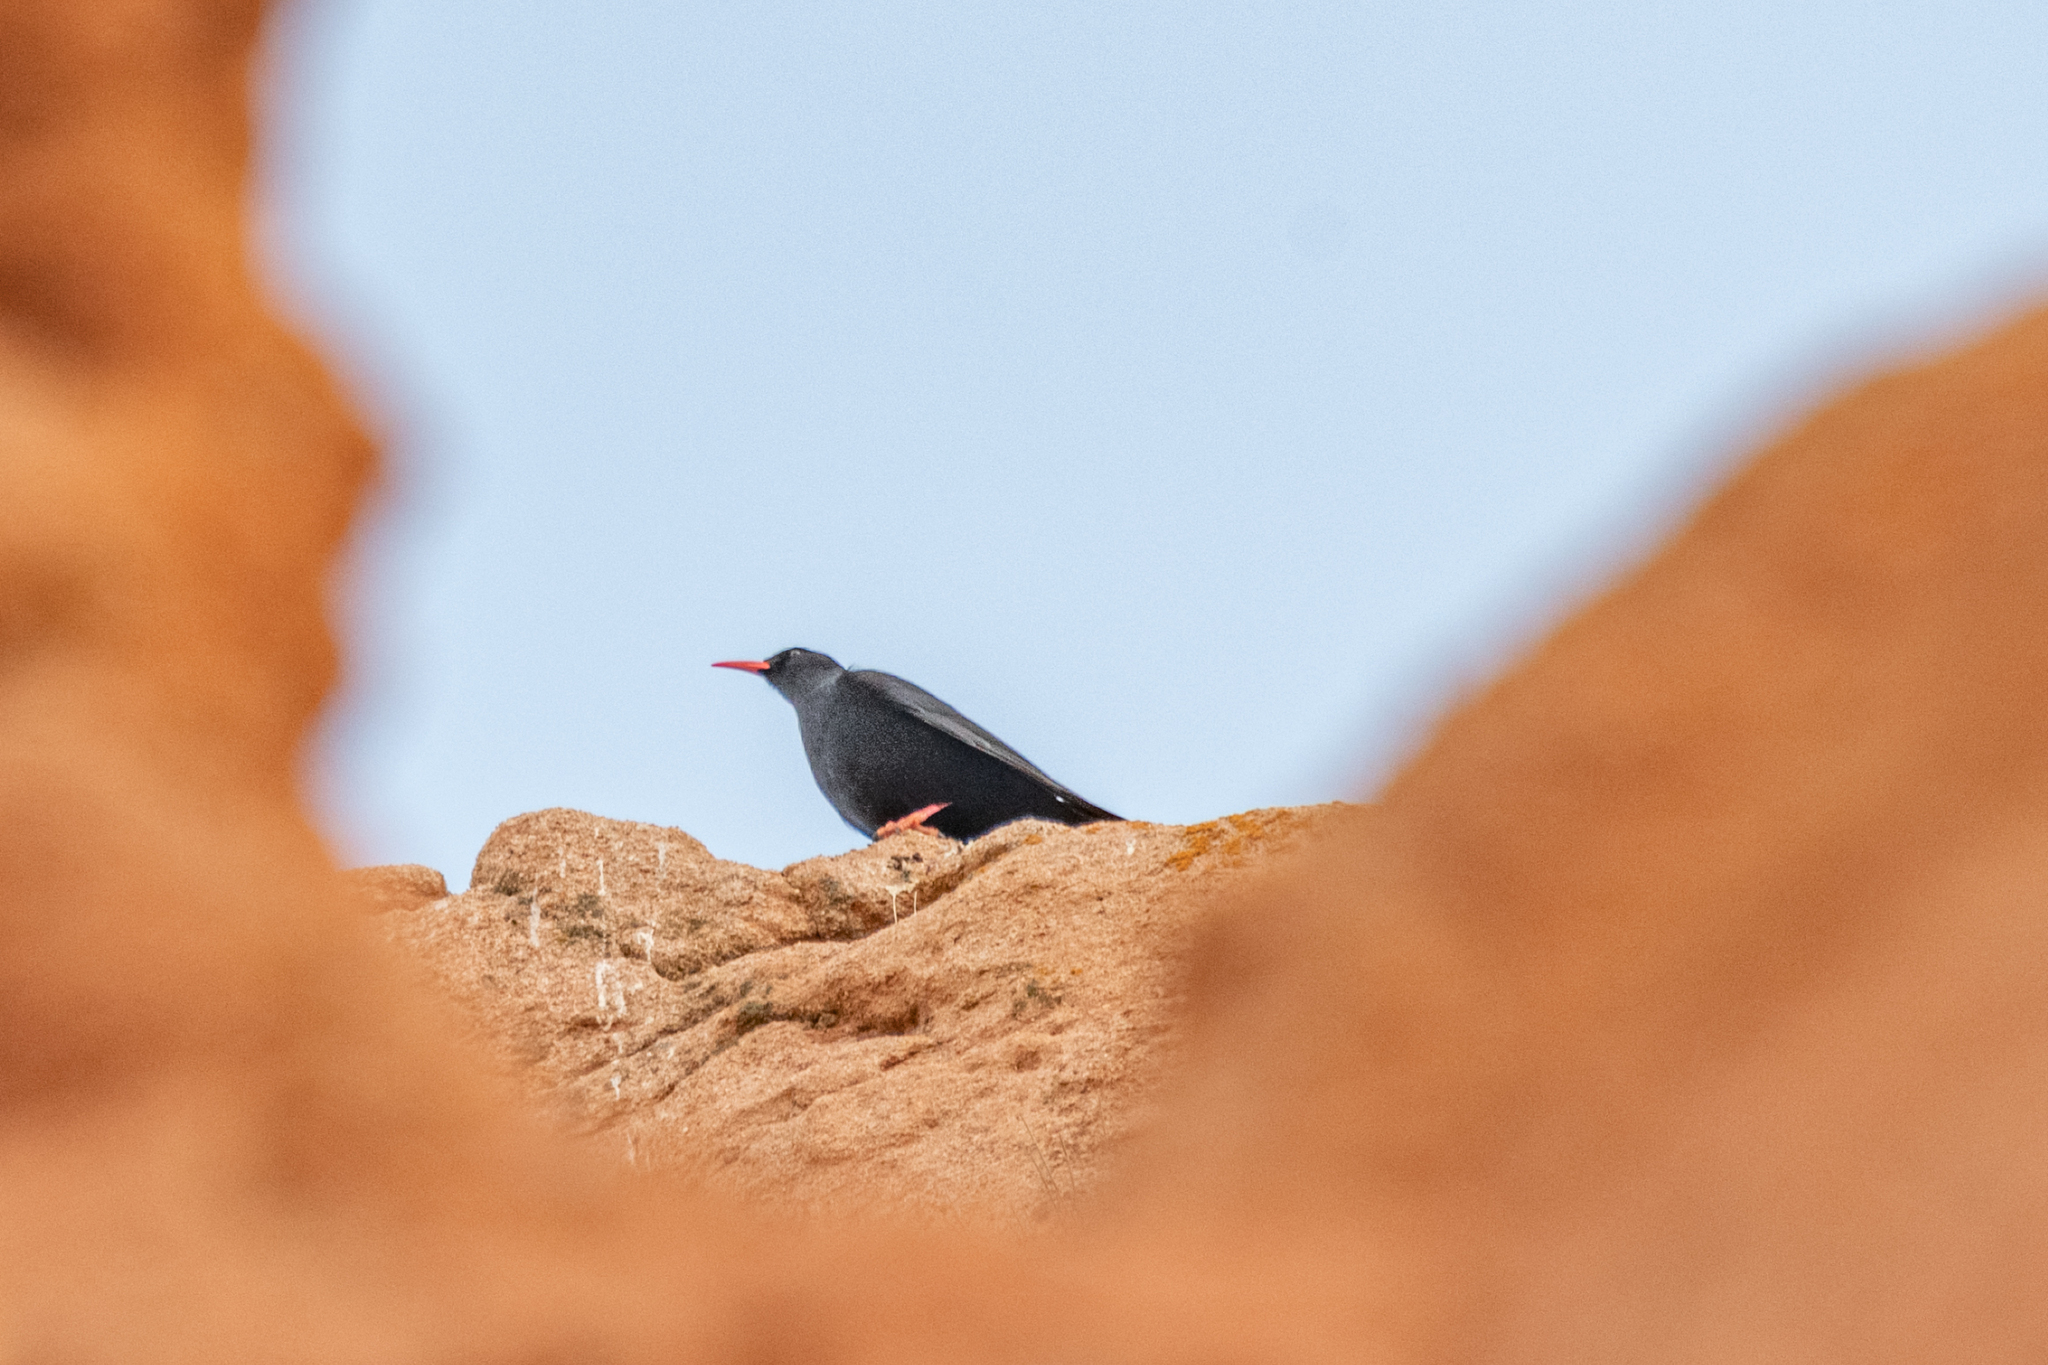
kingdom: Animalia
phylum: Chordata
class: Aves
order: Passeriformes
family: Corvidae
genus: Pyrrhocorax
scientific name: Pyrrhocorax pyrrhocorax
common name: Red-billed chough
